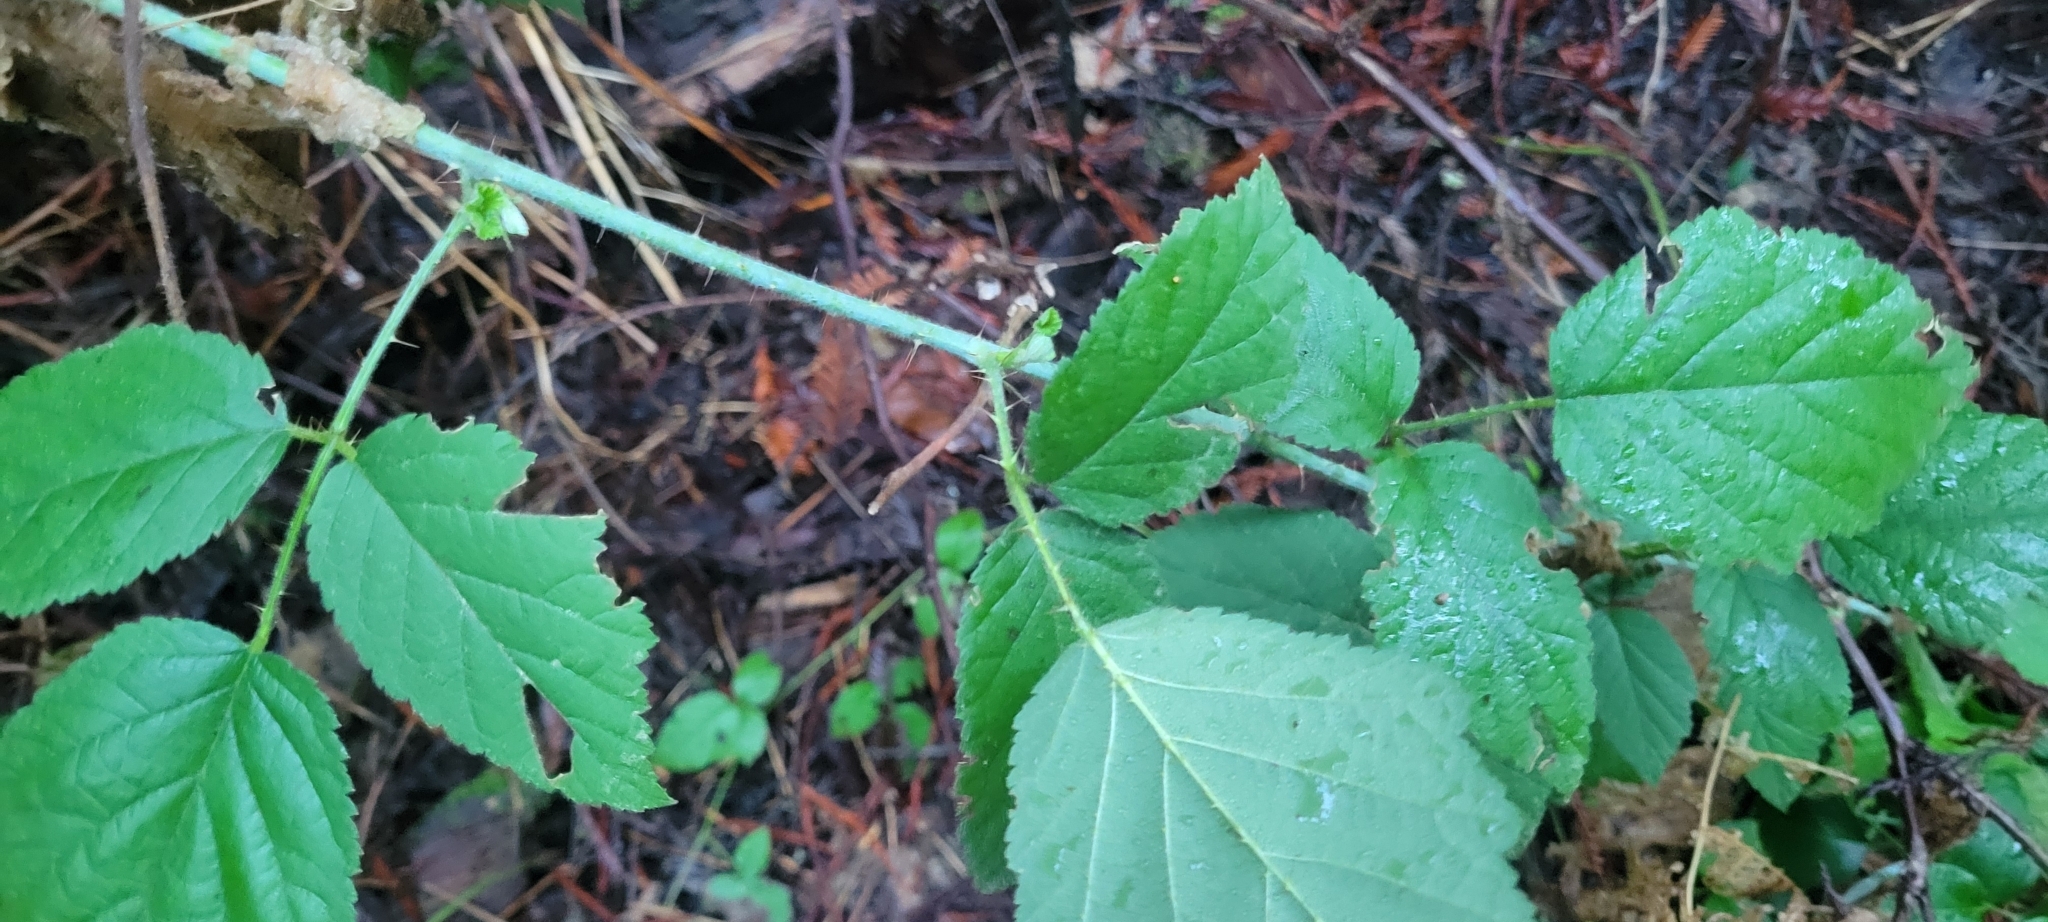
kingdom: Plantae
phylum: Tracheophyta
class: Magnoliopsida
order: Rosales
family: Rosaceae
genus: Rubus
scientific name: Rubus ursinus
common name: Pacific blackberry
